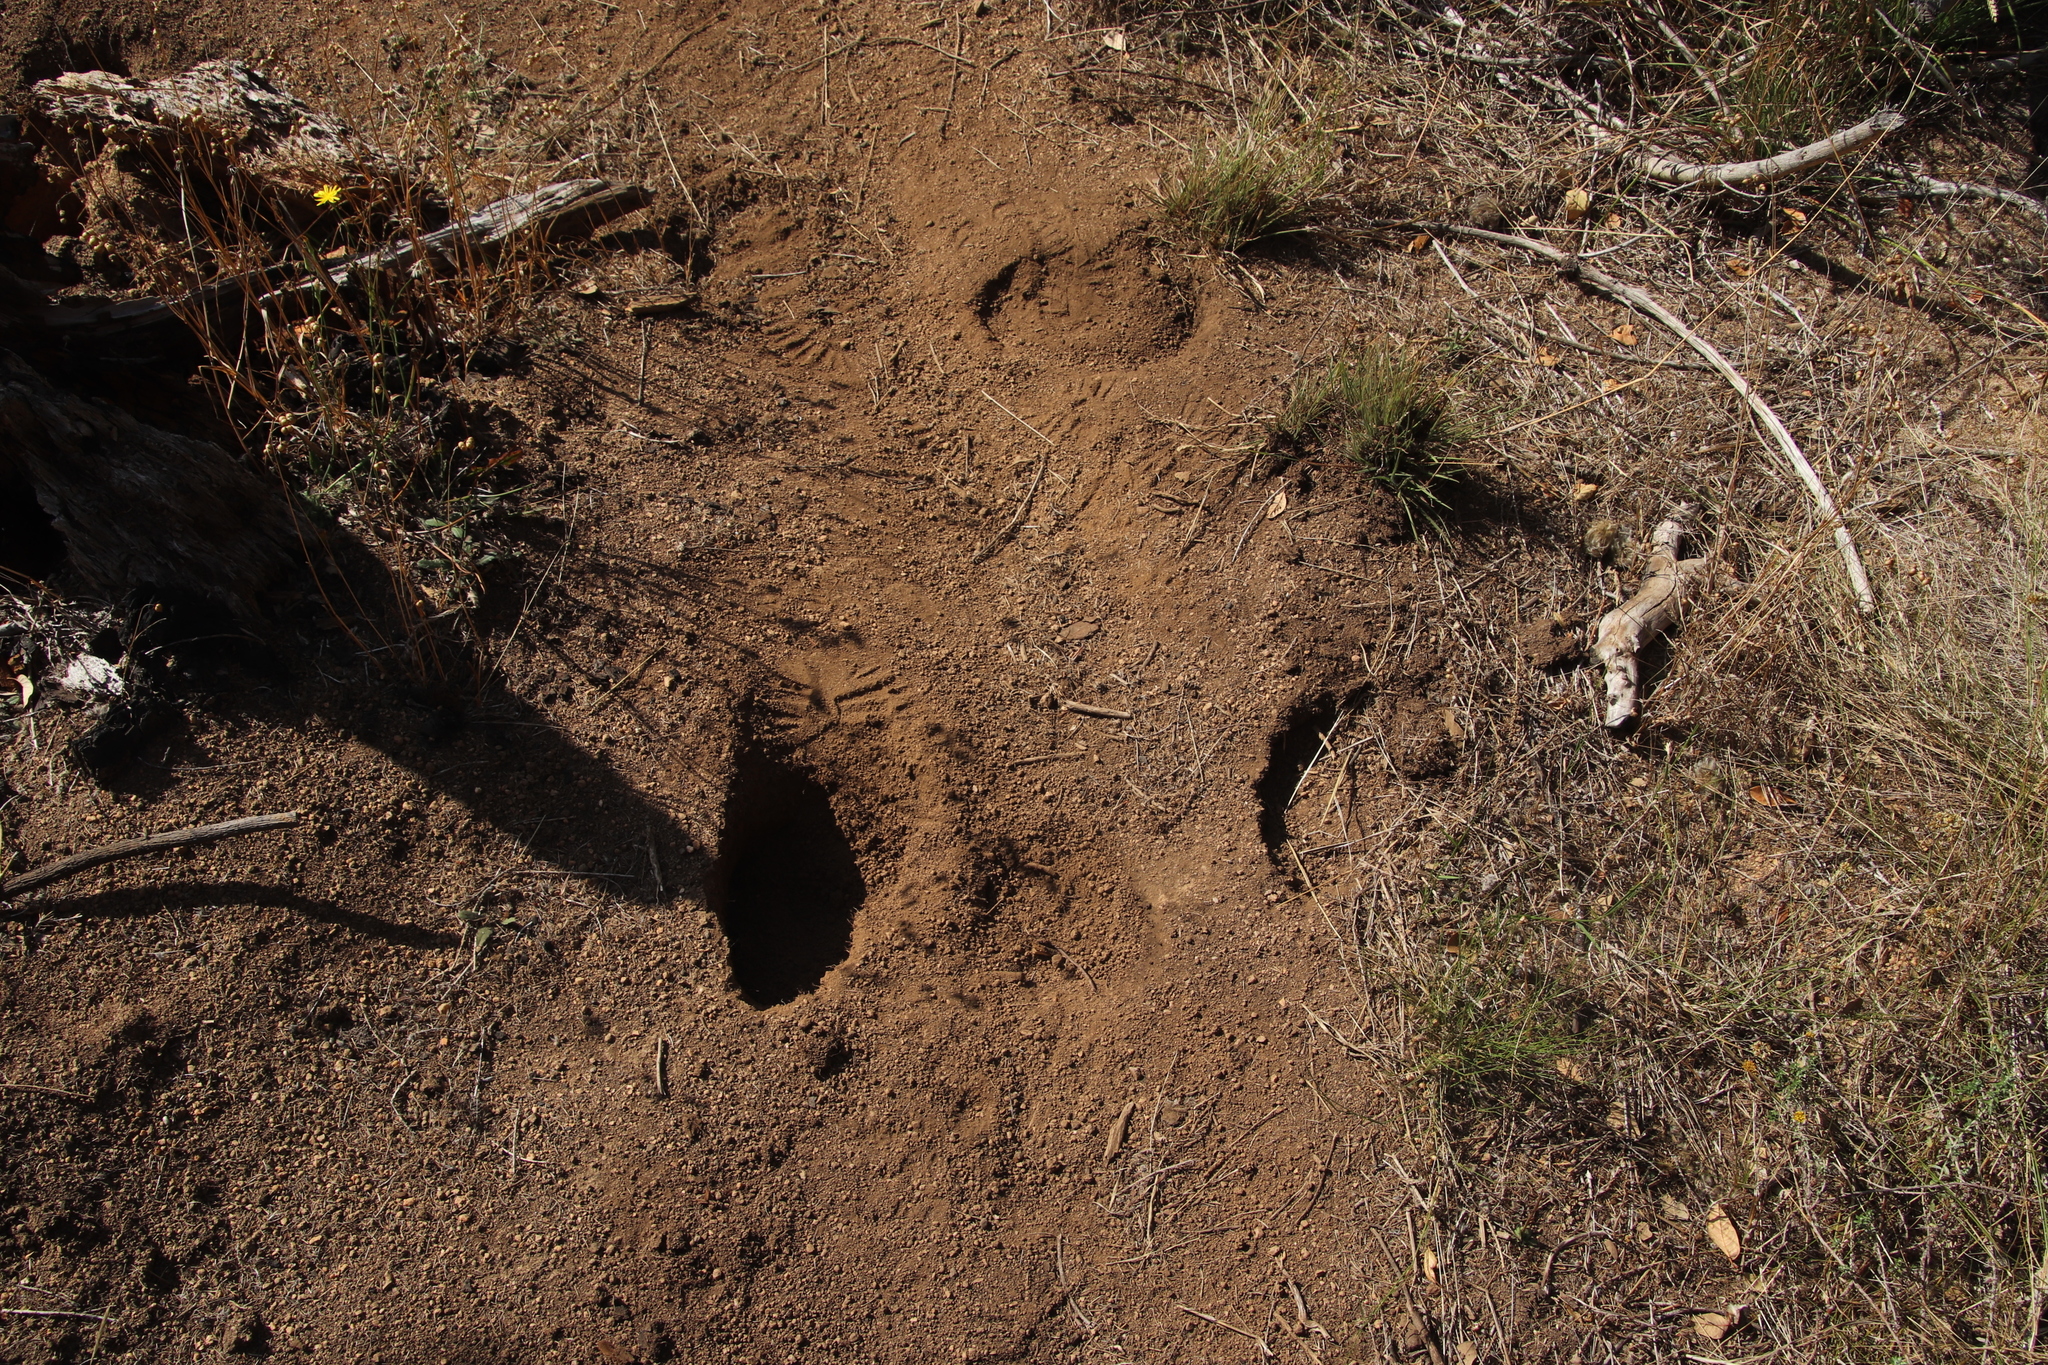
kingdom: Animalia
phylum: Chordata
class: Mammalia
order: Perissodactyla
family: Equidae
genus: Equus
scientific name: Equus caballus
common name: Horse
